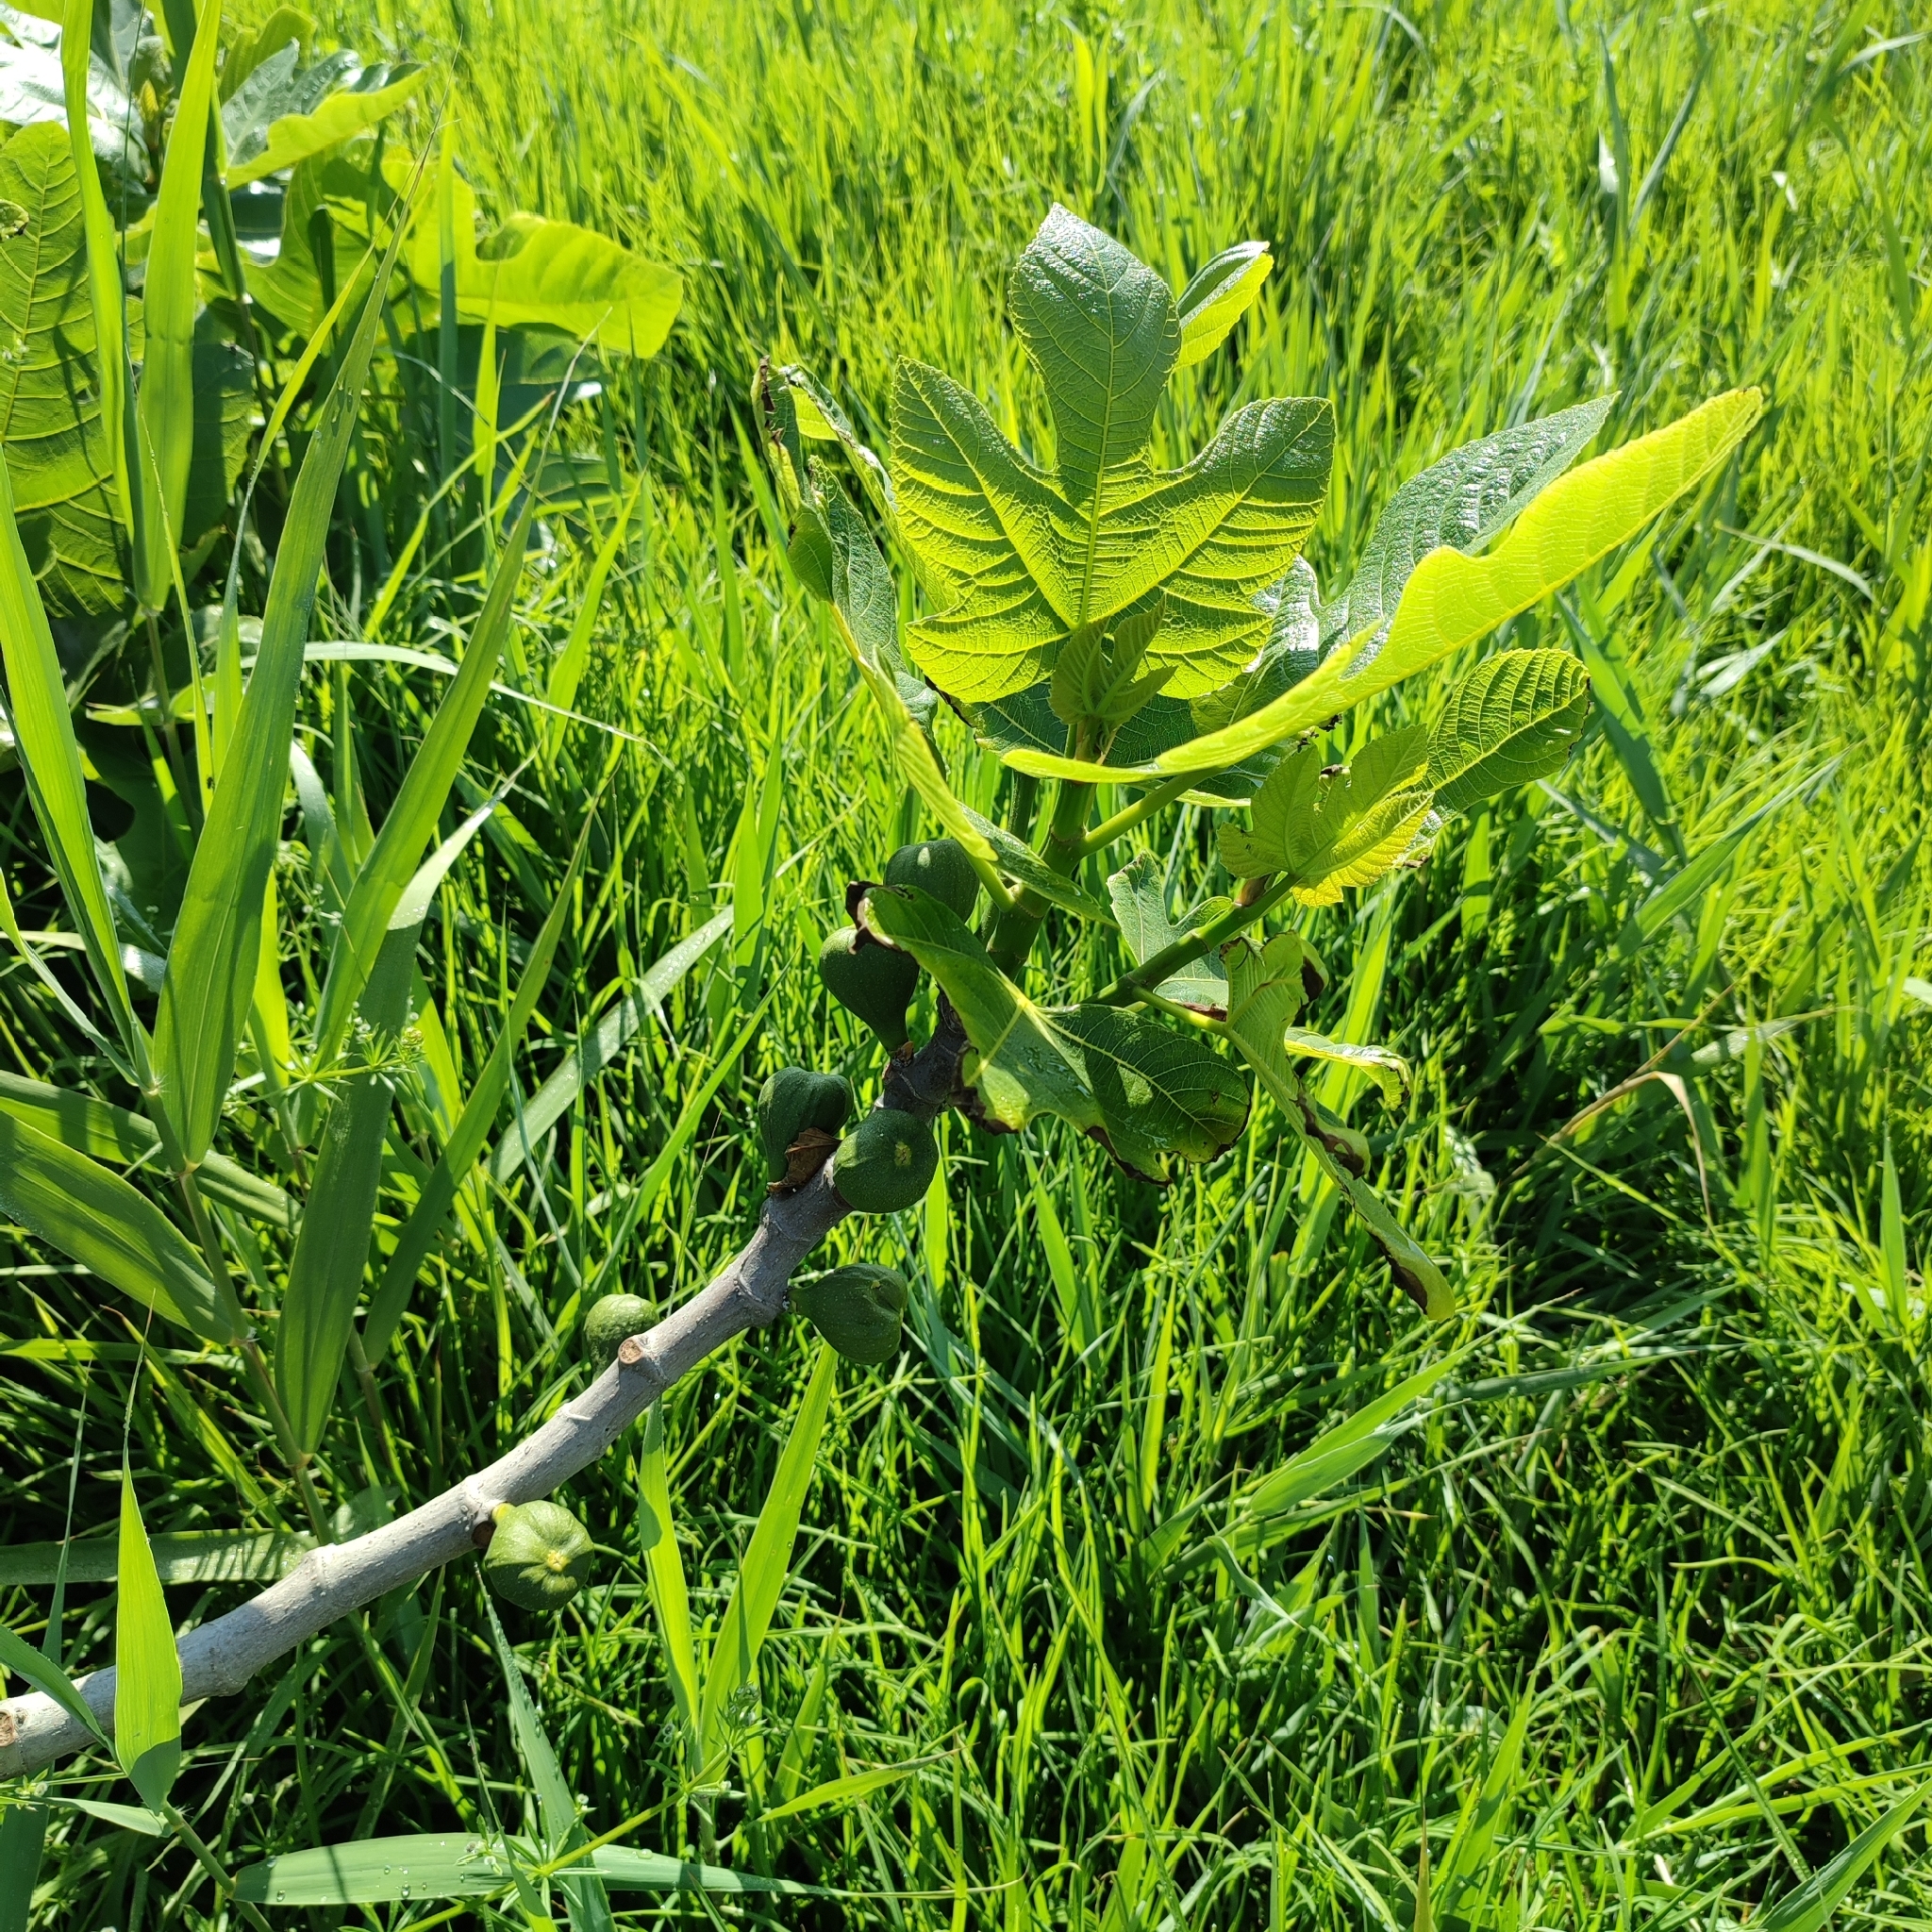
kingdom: Plantae
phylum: Tracheophyta
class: Magnoliopsida
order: Rosales
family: Moraceae
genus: Ficus
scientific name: Ficus carica
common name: Fig
